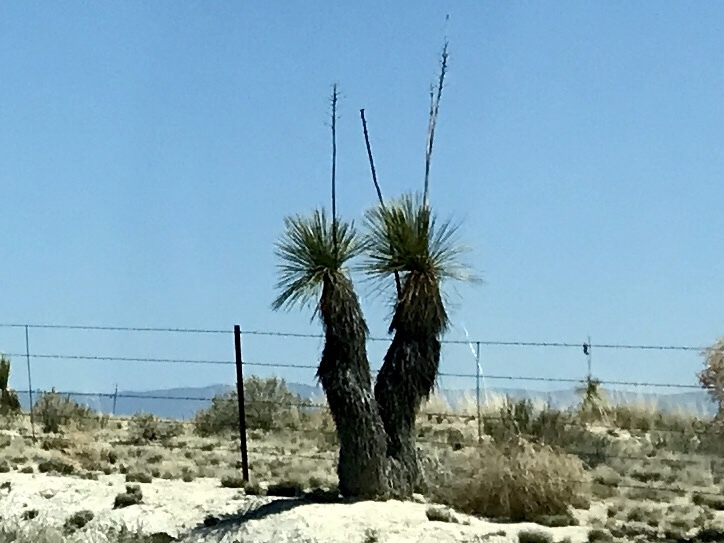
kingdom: Plantae
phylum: Tracheophyta
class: Liliopsida
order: Asparagales
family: Asparagaceae
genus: Yucca
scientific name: Yucca elata
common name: Palmella
